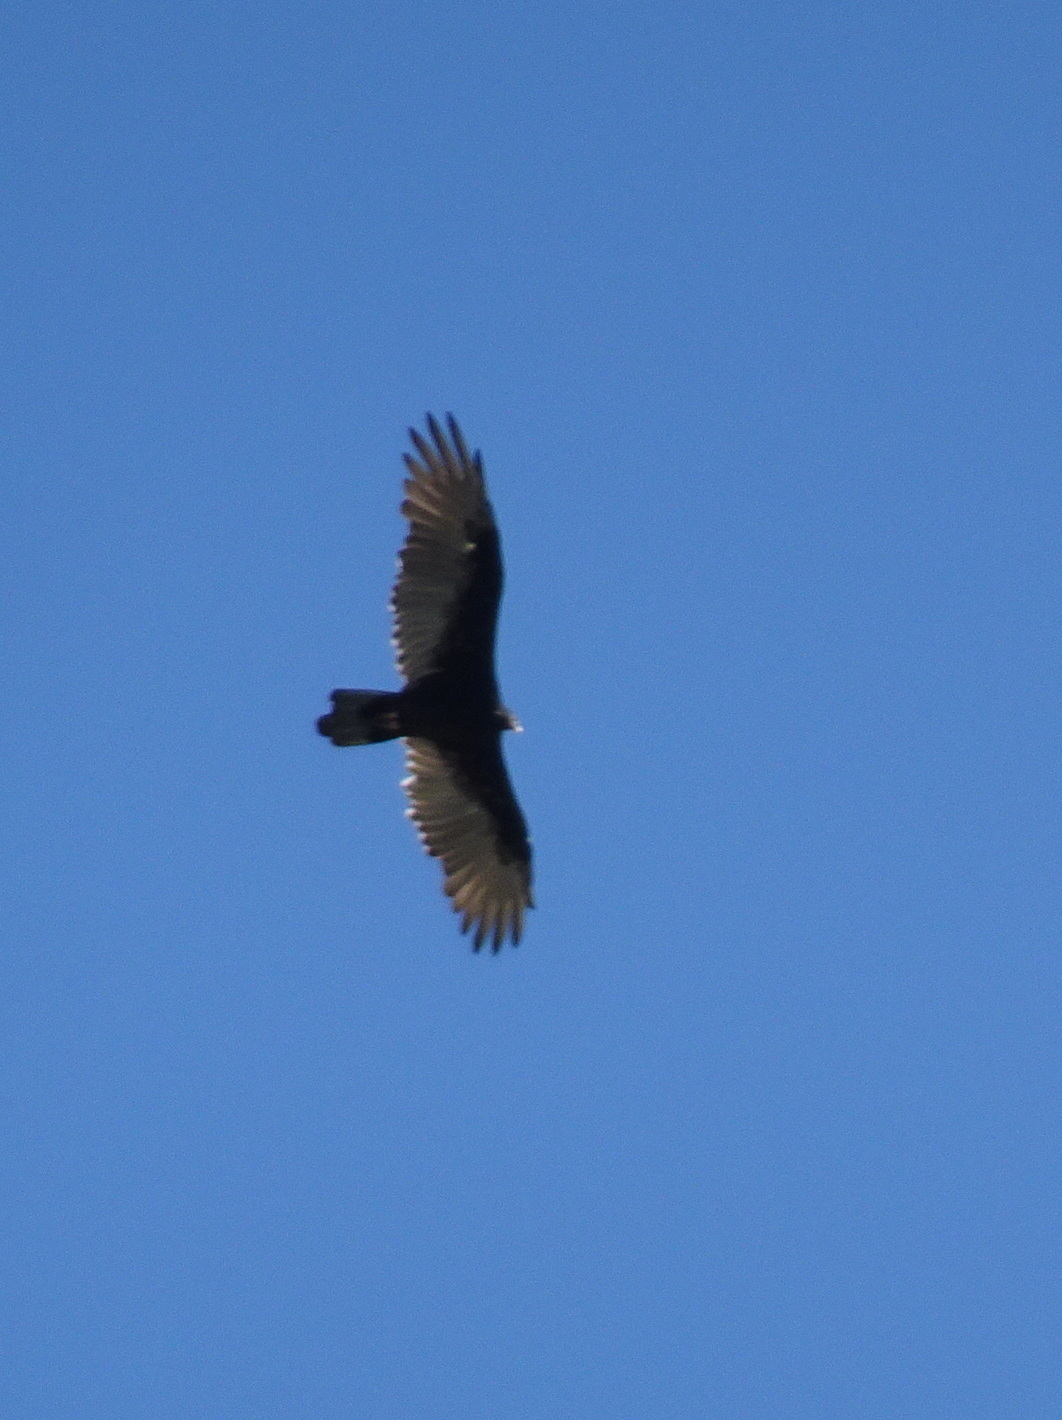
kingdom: Animalia
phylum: Chordata
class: Aves
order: Accipitriformes
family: Cathartidae
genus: Cathartes
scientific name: Cathartes aura
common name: Turkey vulture
